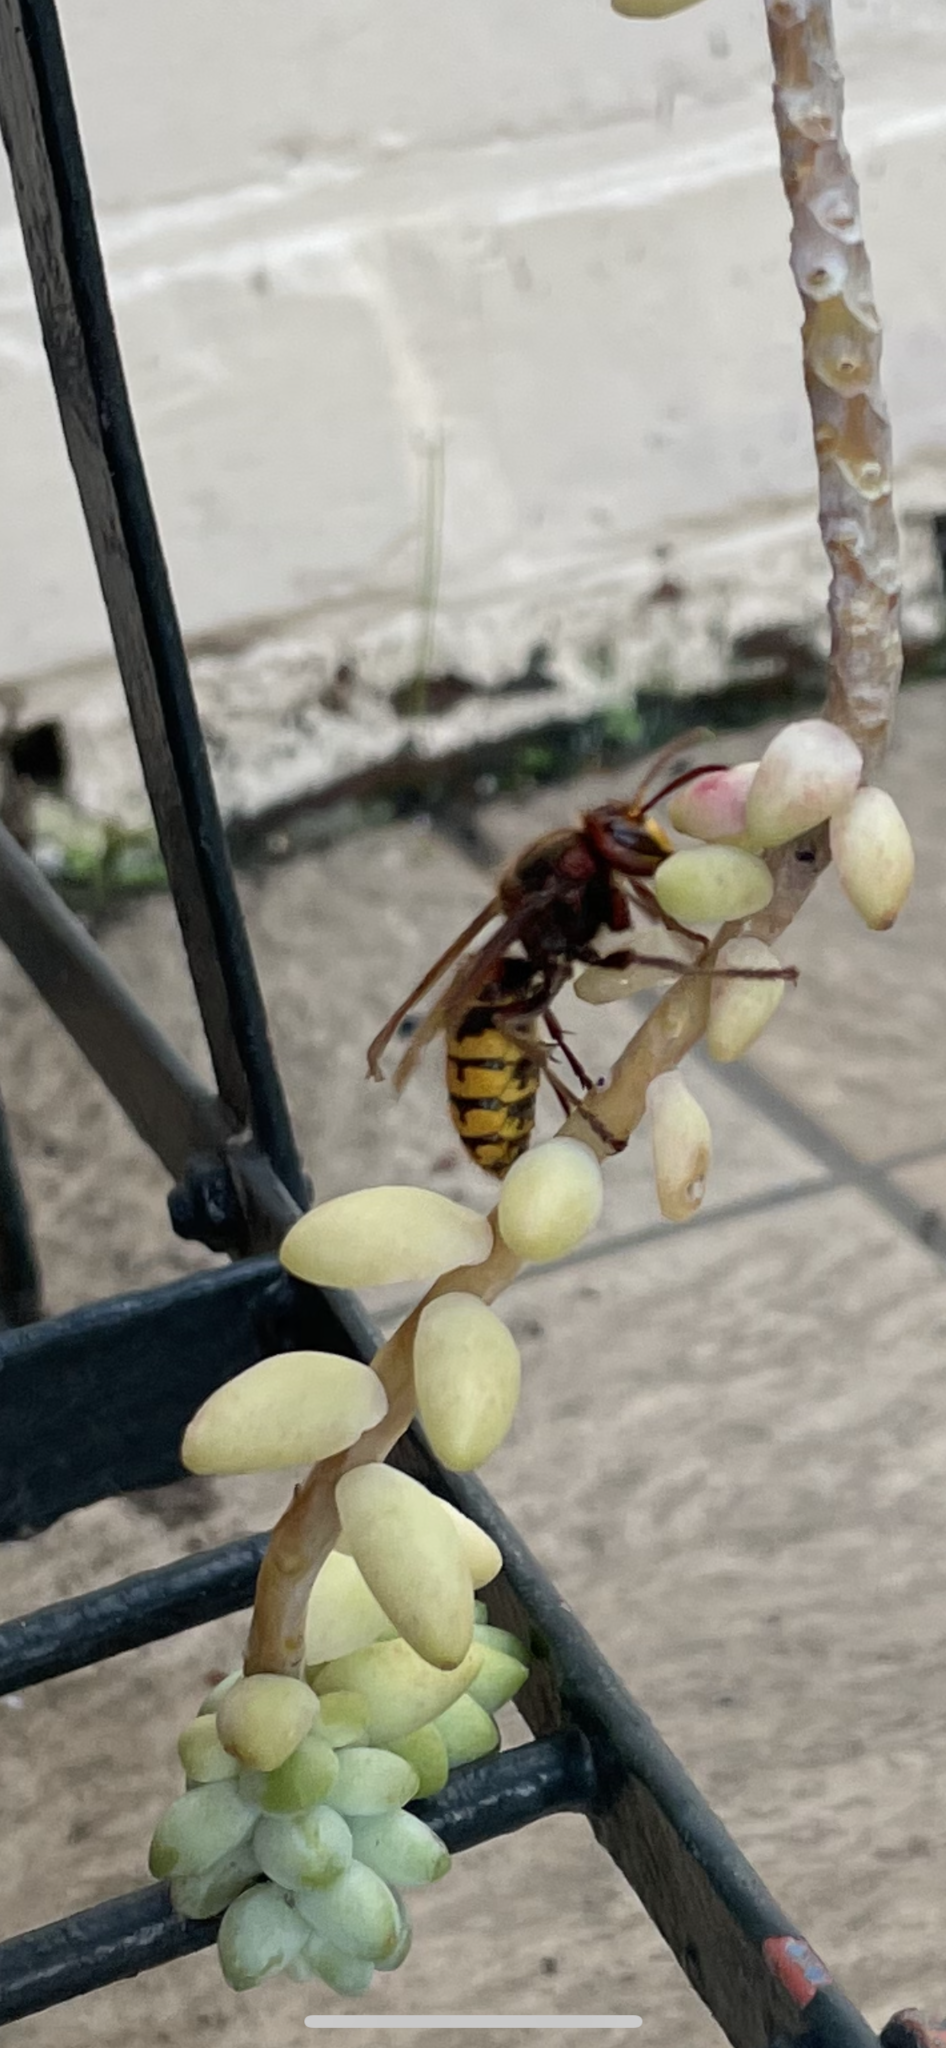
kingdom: Animalia
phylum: Arthropoda
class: Insecta
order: Hymenoptera
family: Vespidae
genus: Vespa
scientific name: Vespa crabro
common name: Hornet
